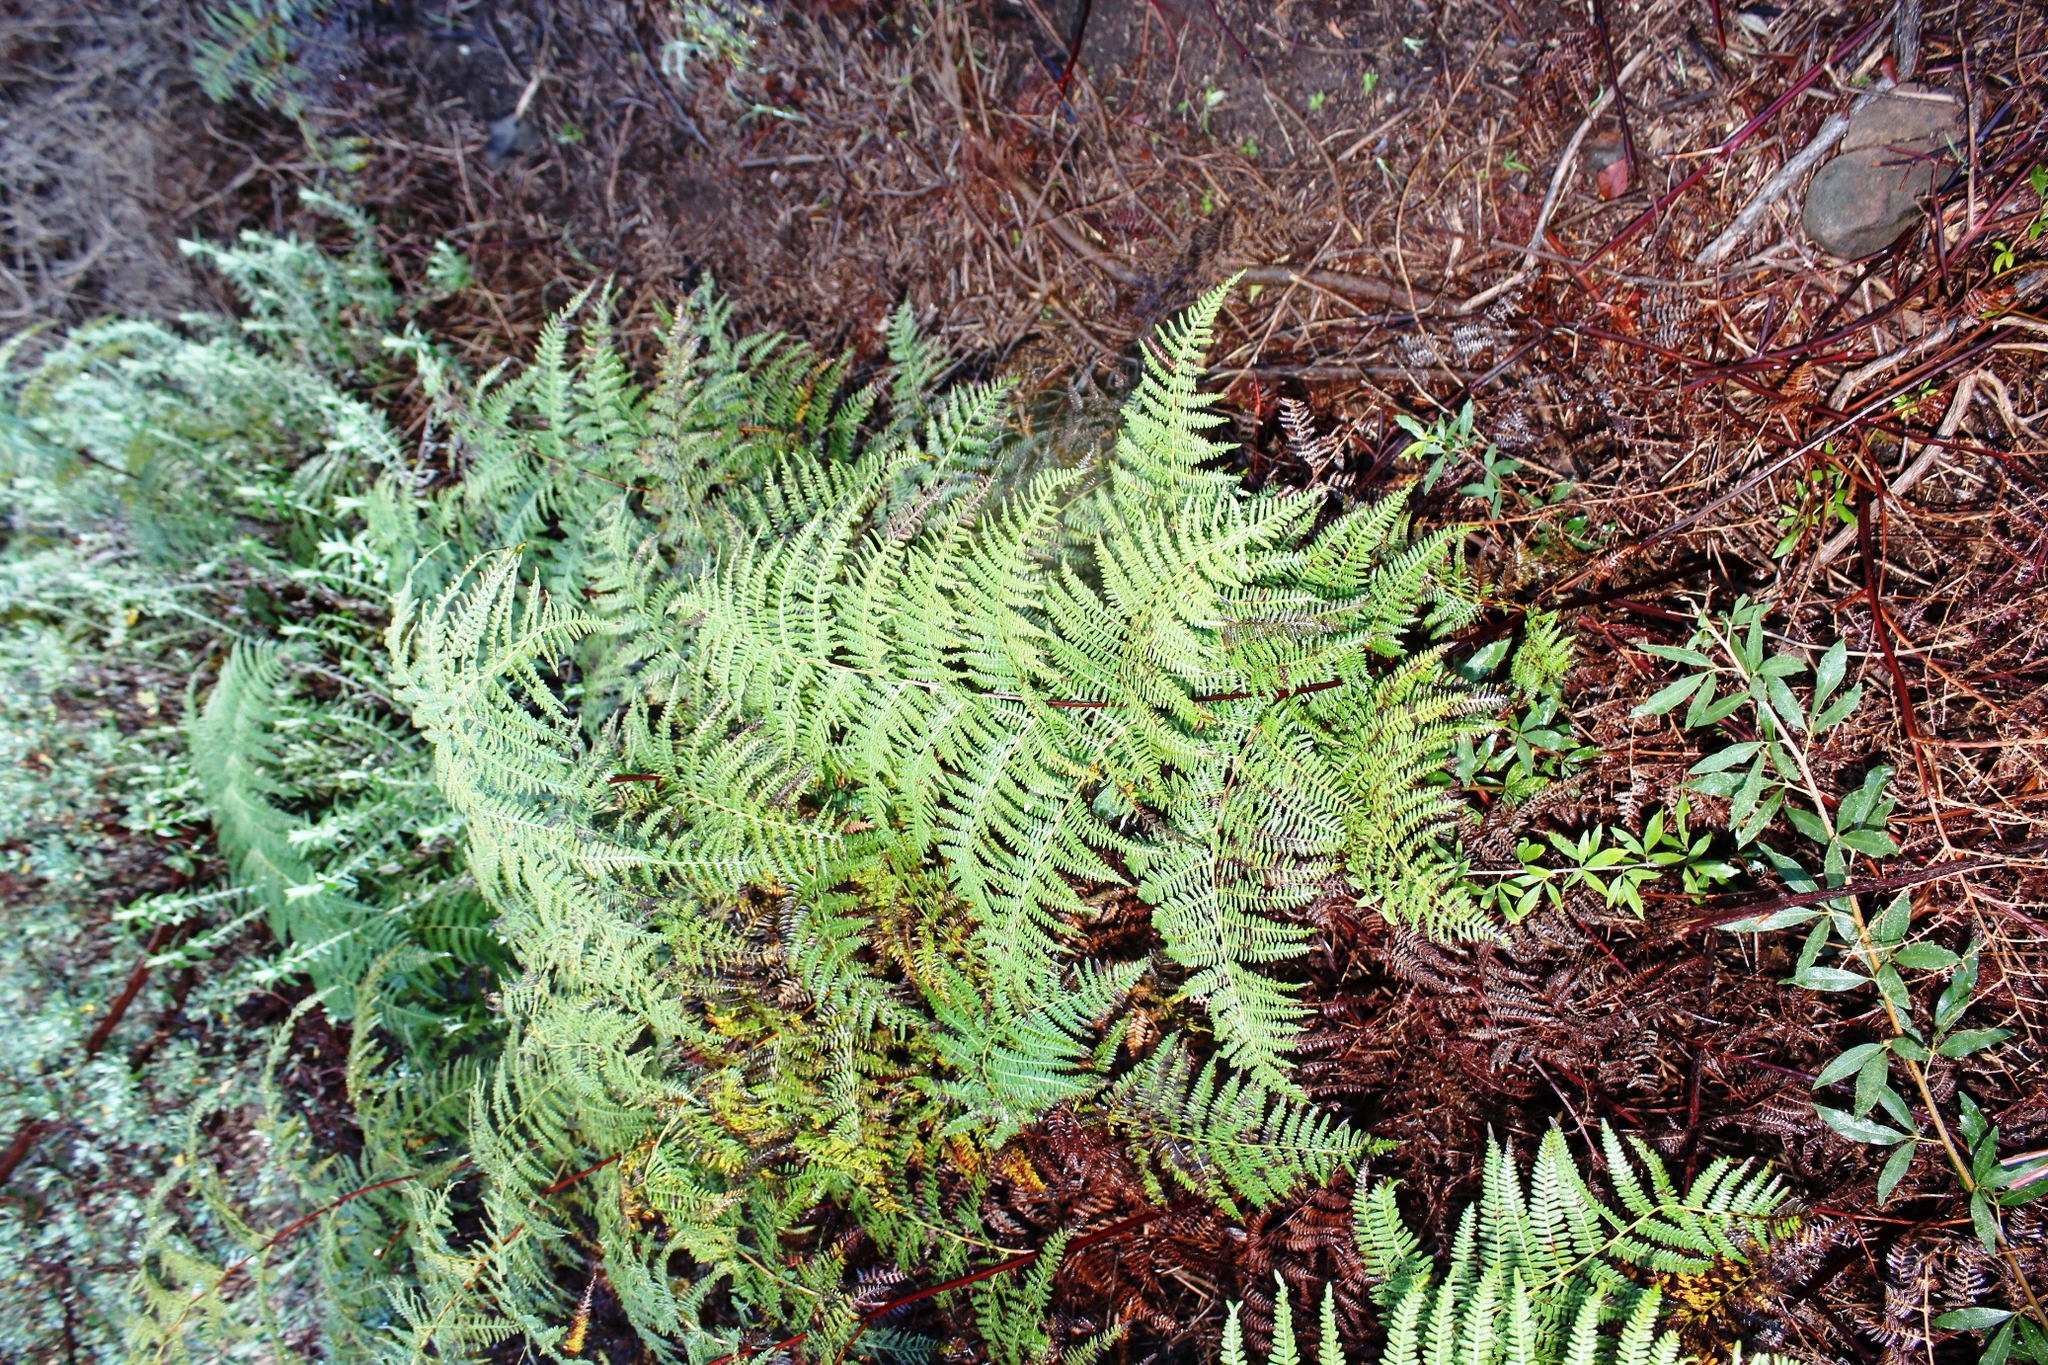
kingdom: Plantae
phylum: Tracheophyta
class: Polypodiopsida
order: Polypodiales
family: Dennstaedtiaceae
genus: Pteridium
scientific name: Pteridium aquilinum
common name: Bracken
